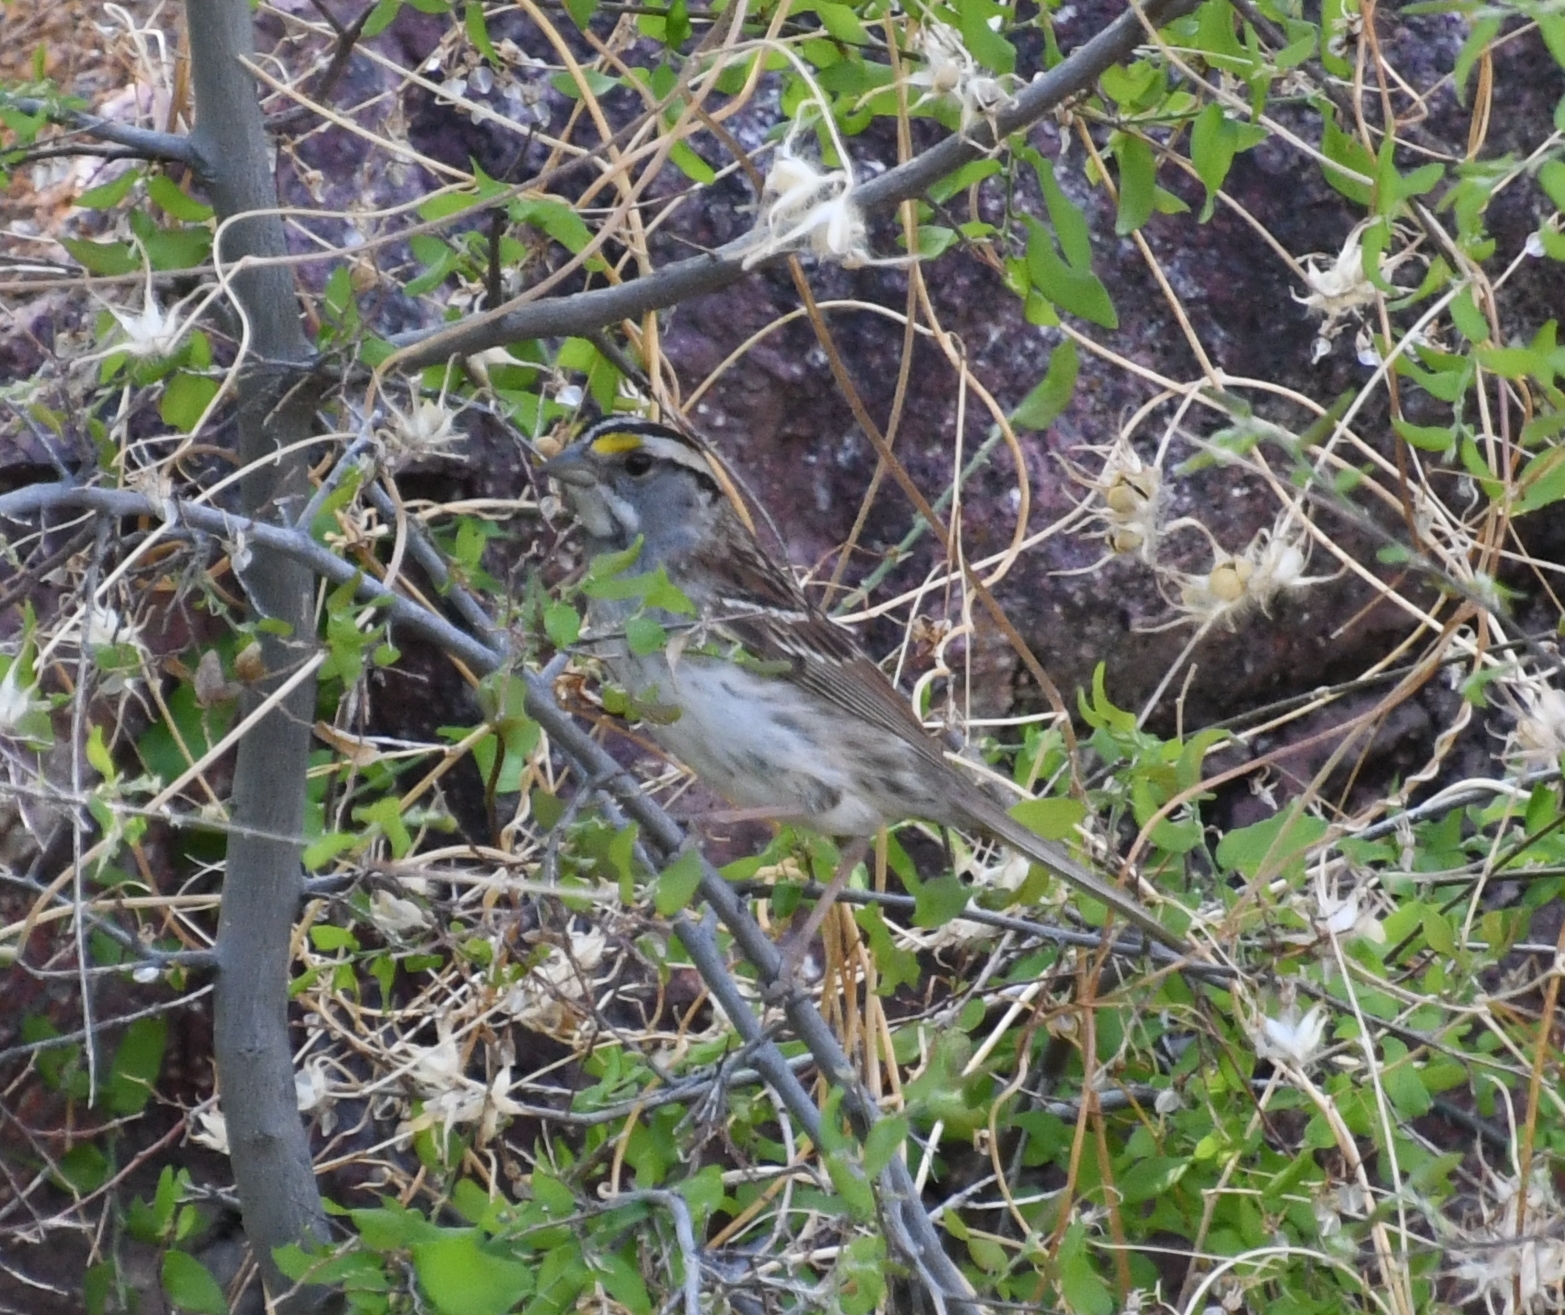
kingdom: Animalia
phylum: Chordata
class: Aves
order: Passeriformes
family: Passerellidae
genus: Zonotrichia
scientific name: Zonotrichia albicollis
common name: White-throated sparrow
